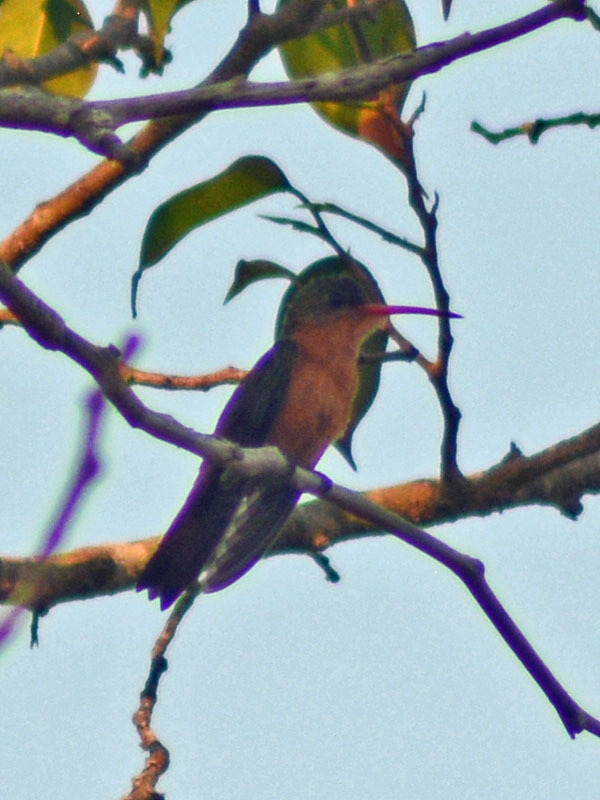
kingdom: Animalia
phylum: Chordata
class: Aves
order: Apodiformes
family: Trochilidae
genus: Amazilia
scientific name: Amazilia rutila
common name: Cinnamon hummingbird
